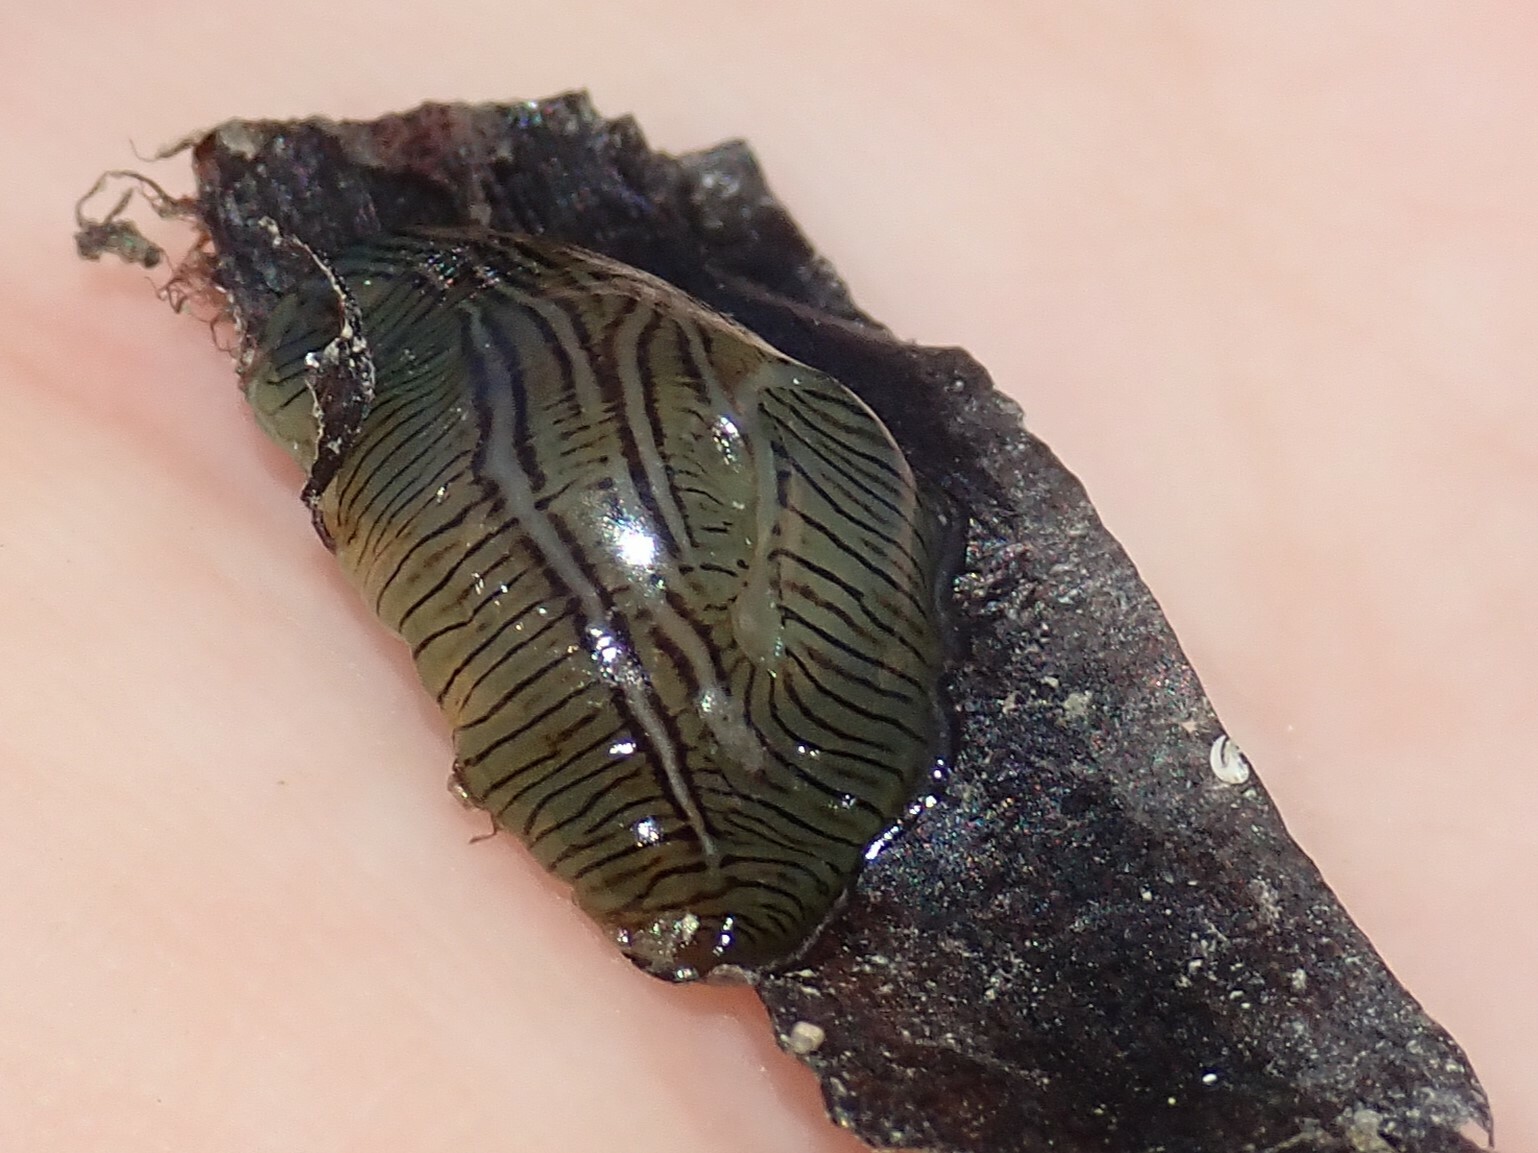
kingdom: Animalia
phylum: Mollusca
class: Gastropoda
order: Aplysiida
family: Aplysiidae
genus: Phyllaplysia
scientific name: Phyllaplysia taylori
